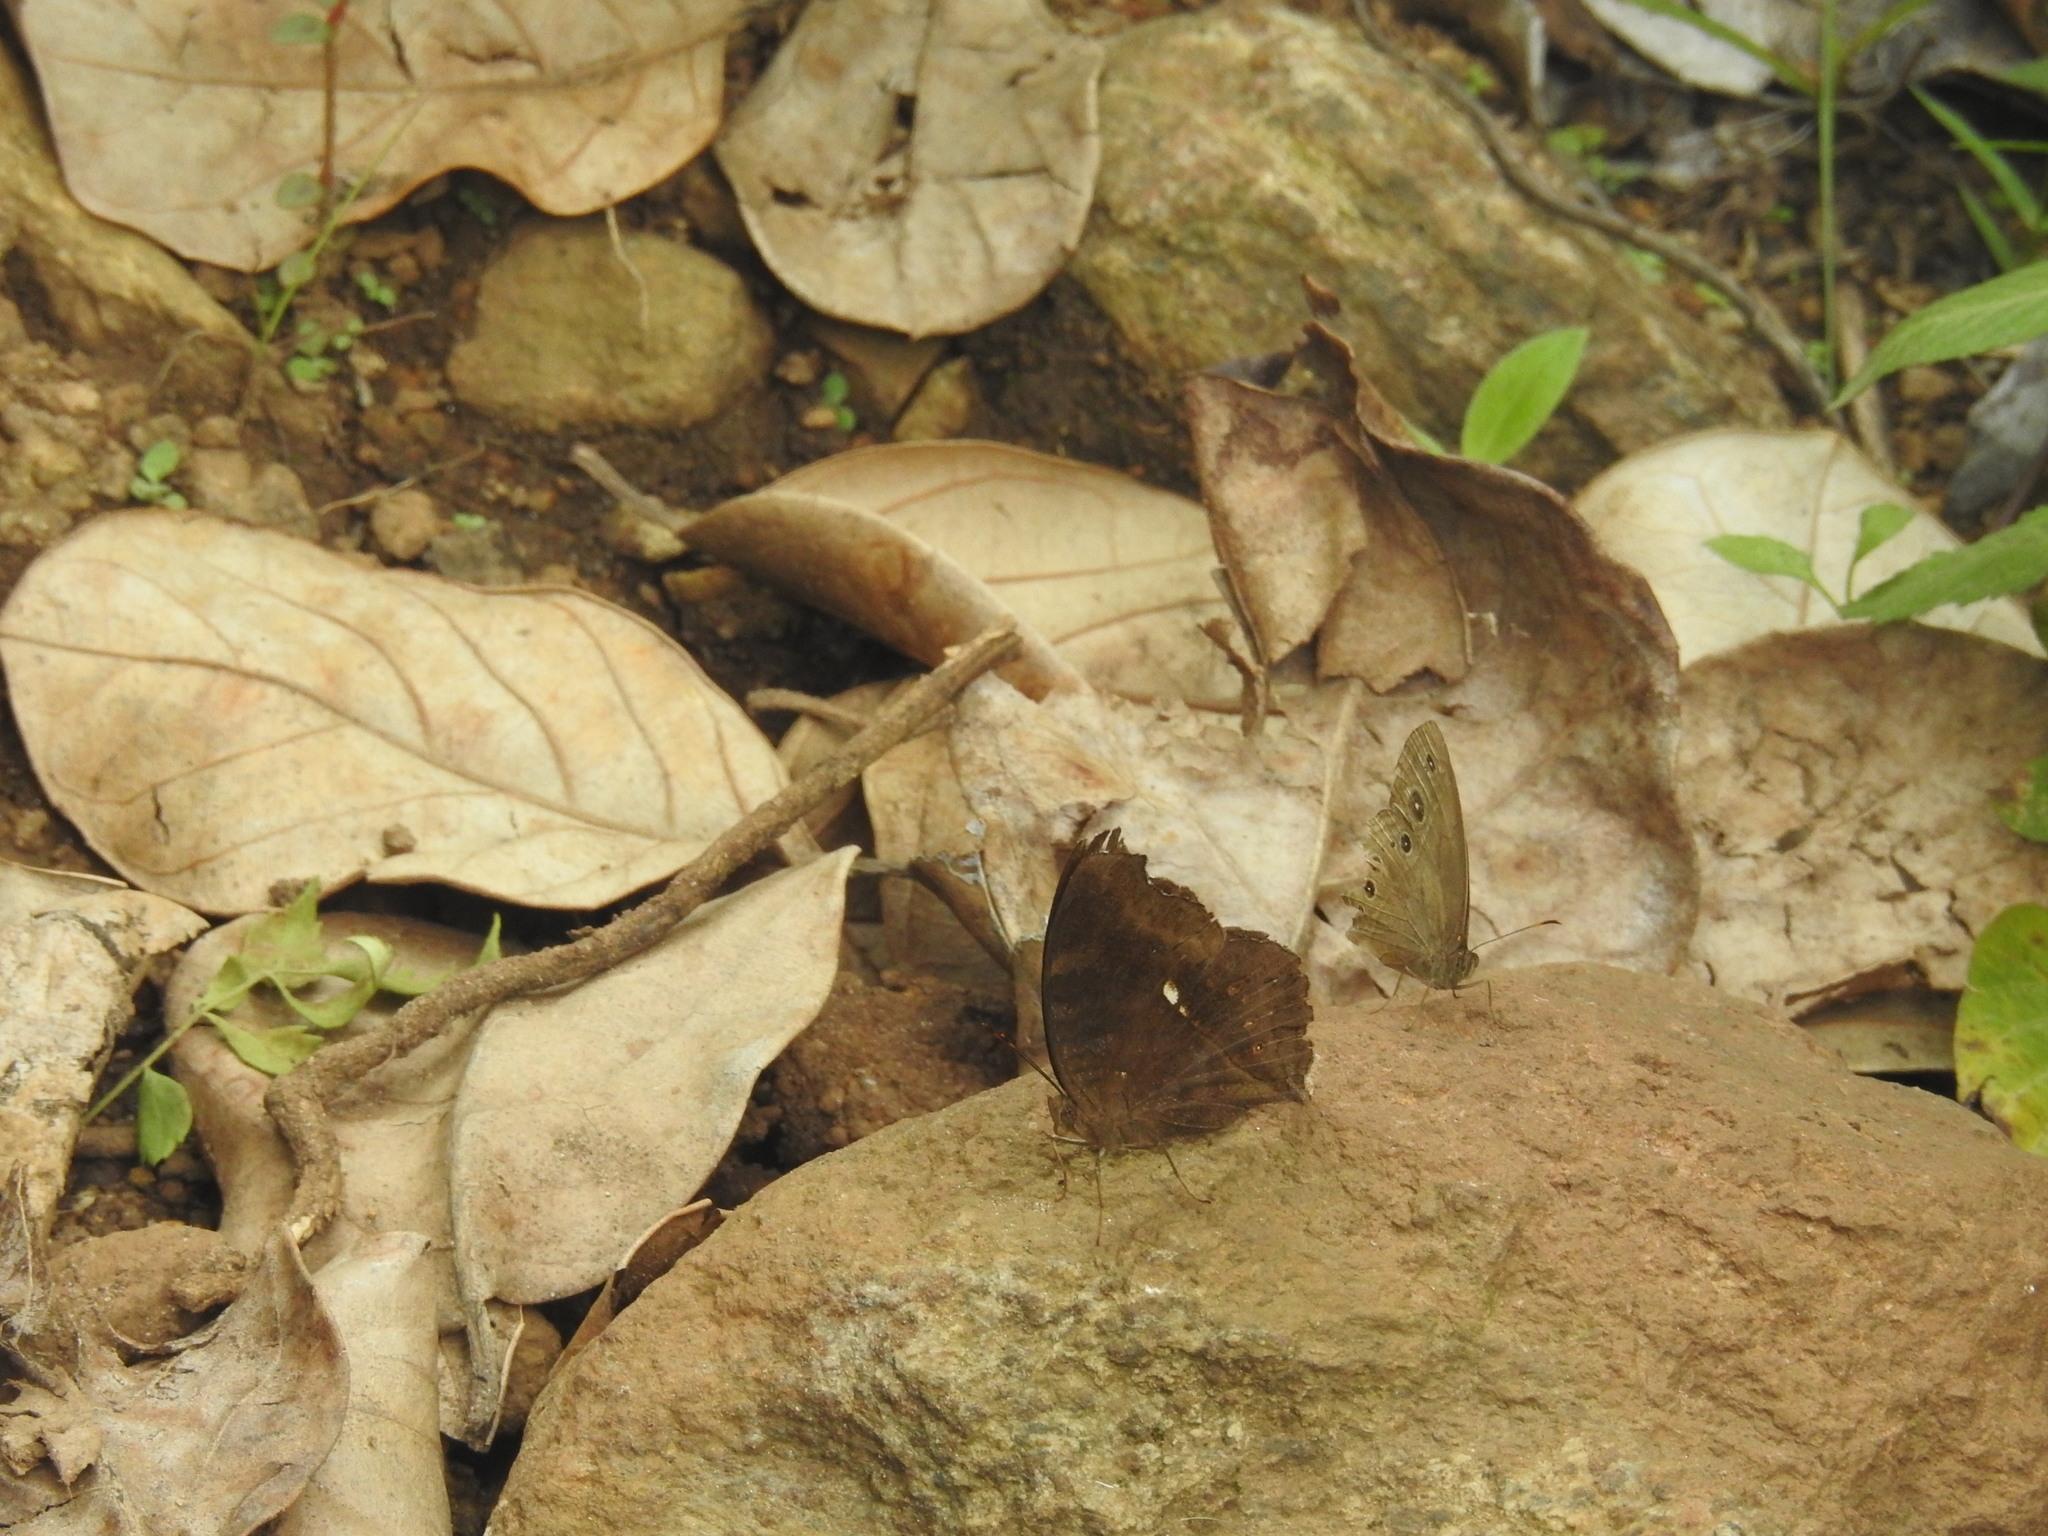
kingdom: Animalia
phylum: Arthropoda
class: Insecta
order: Lepidoptera
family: Nymphalidae
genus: Junonia
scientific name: Junonia iphita
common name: Chocolate pansy
